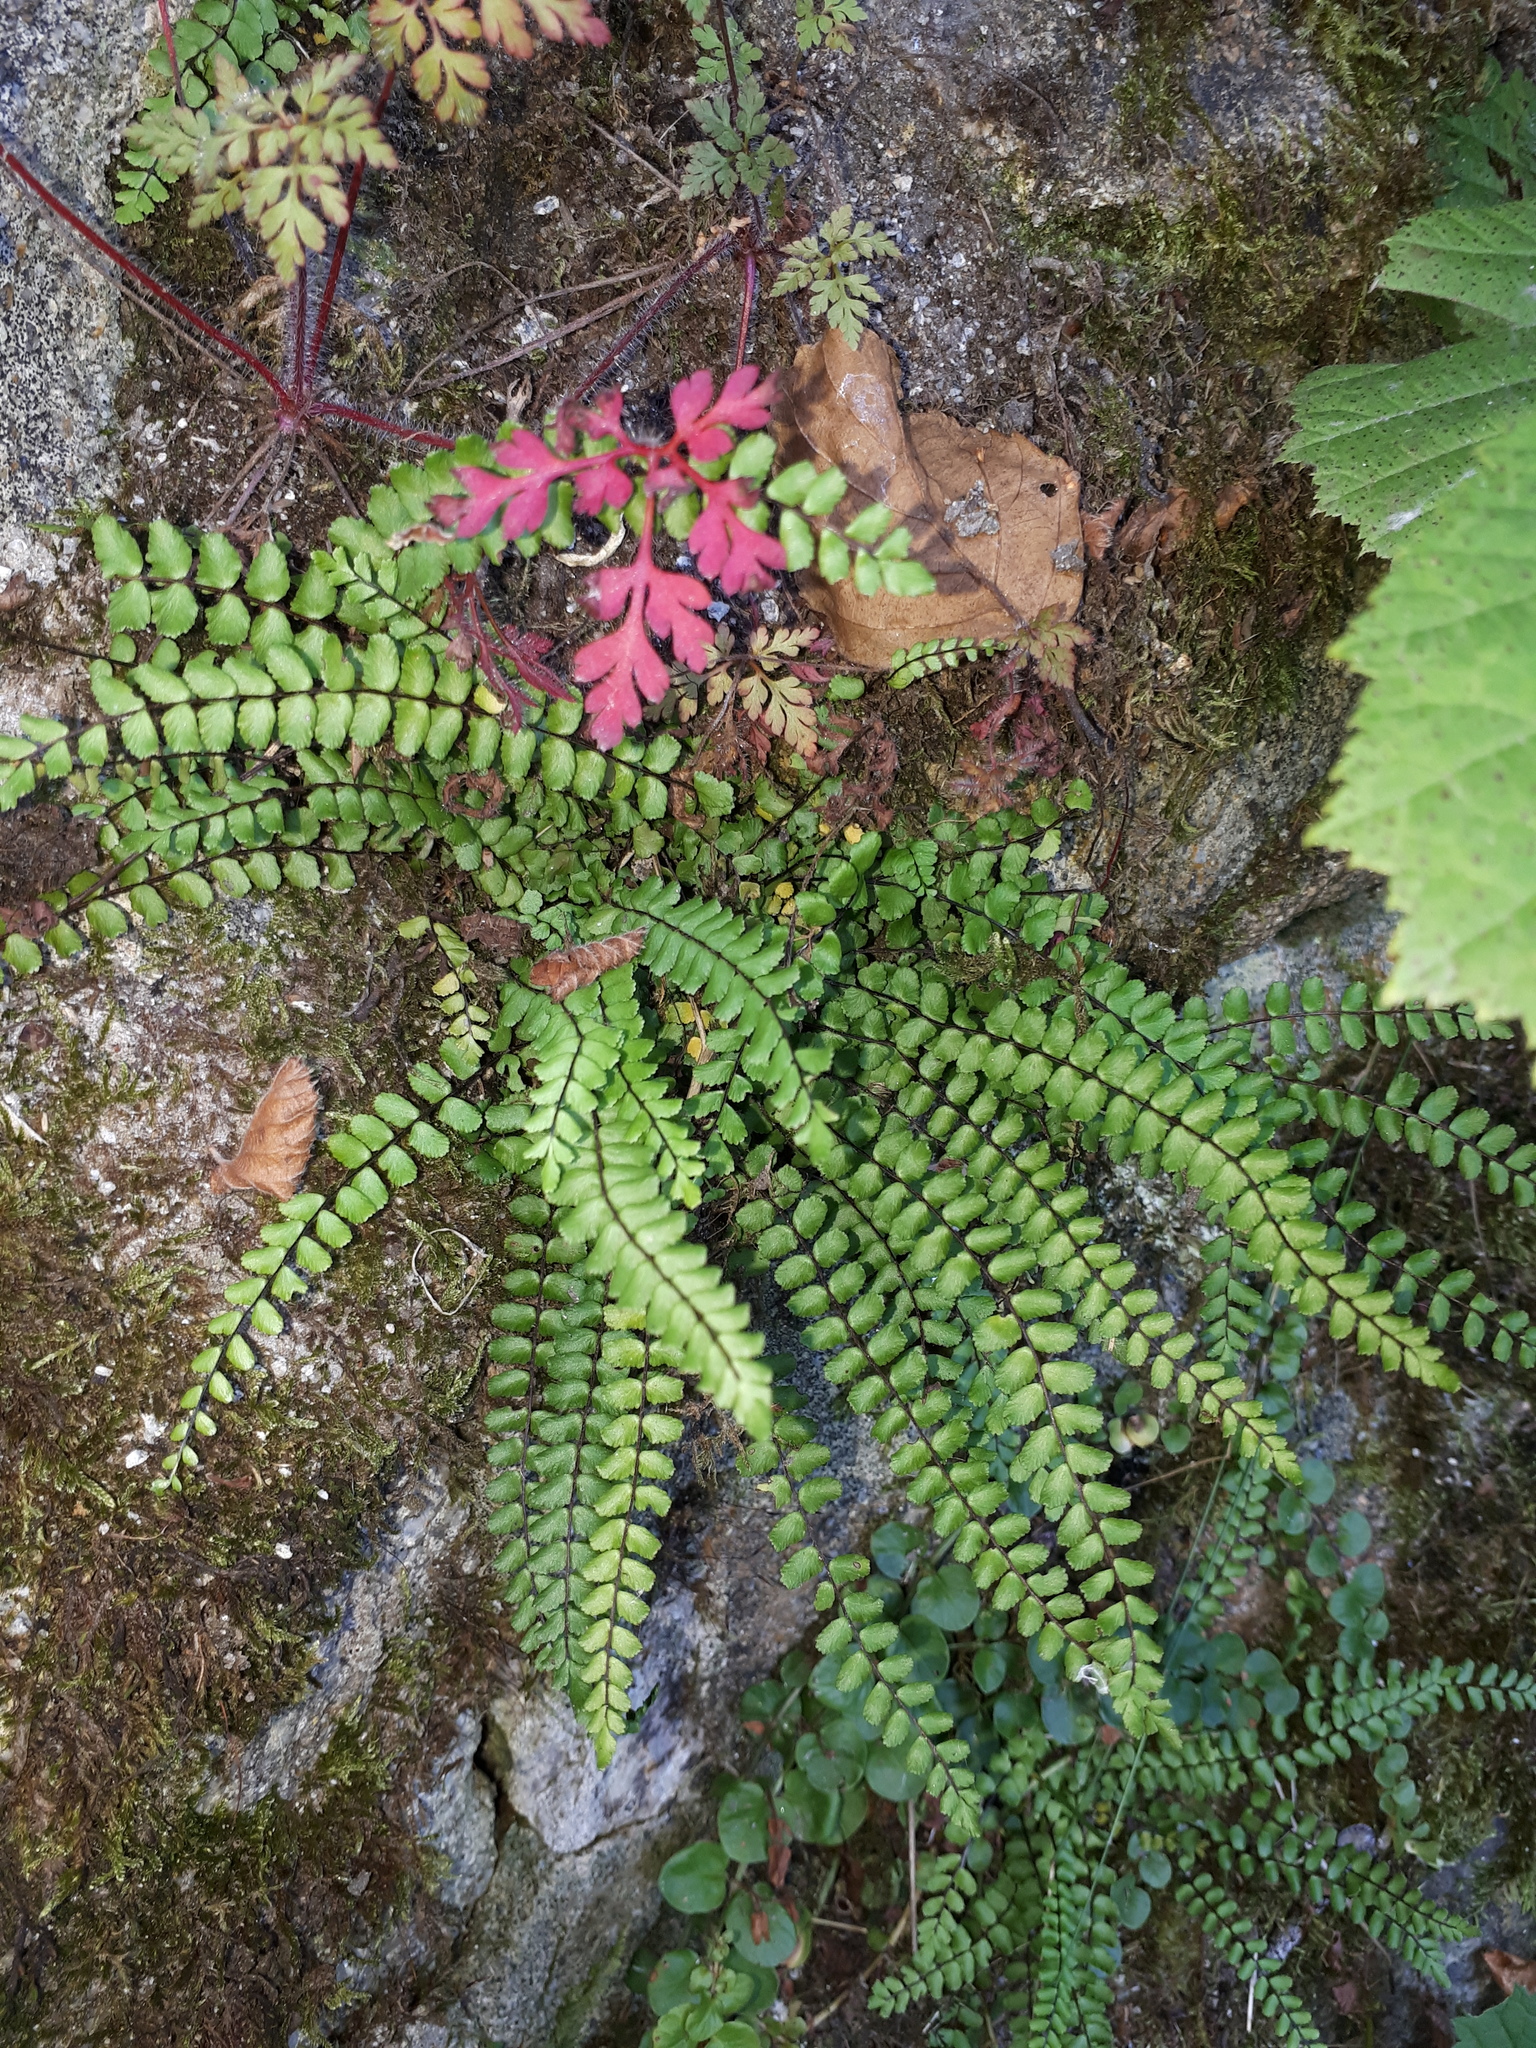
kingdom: Plantae
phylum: Tracheophyta
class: Polypodiopsida
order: Polypodiales
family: Aspleniaceae
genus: Asplenium
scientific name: Asplenium trichomanes
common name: Maidenhair spleenwort
